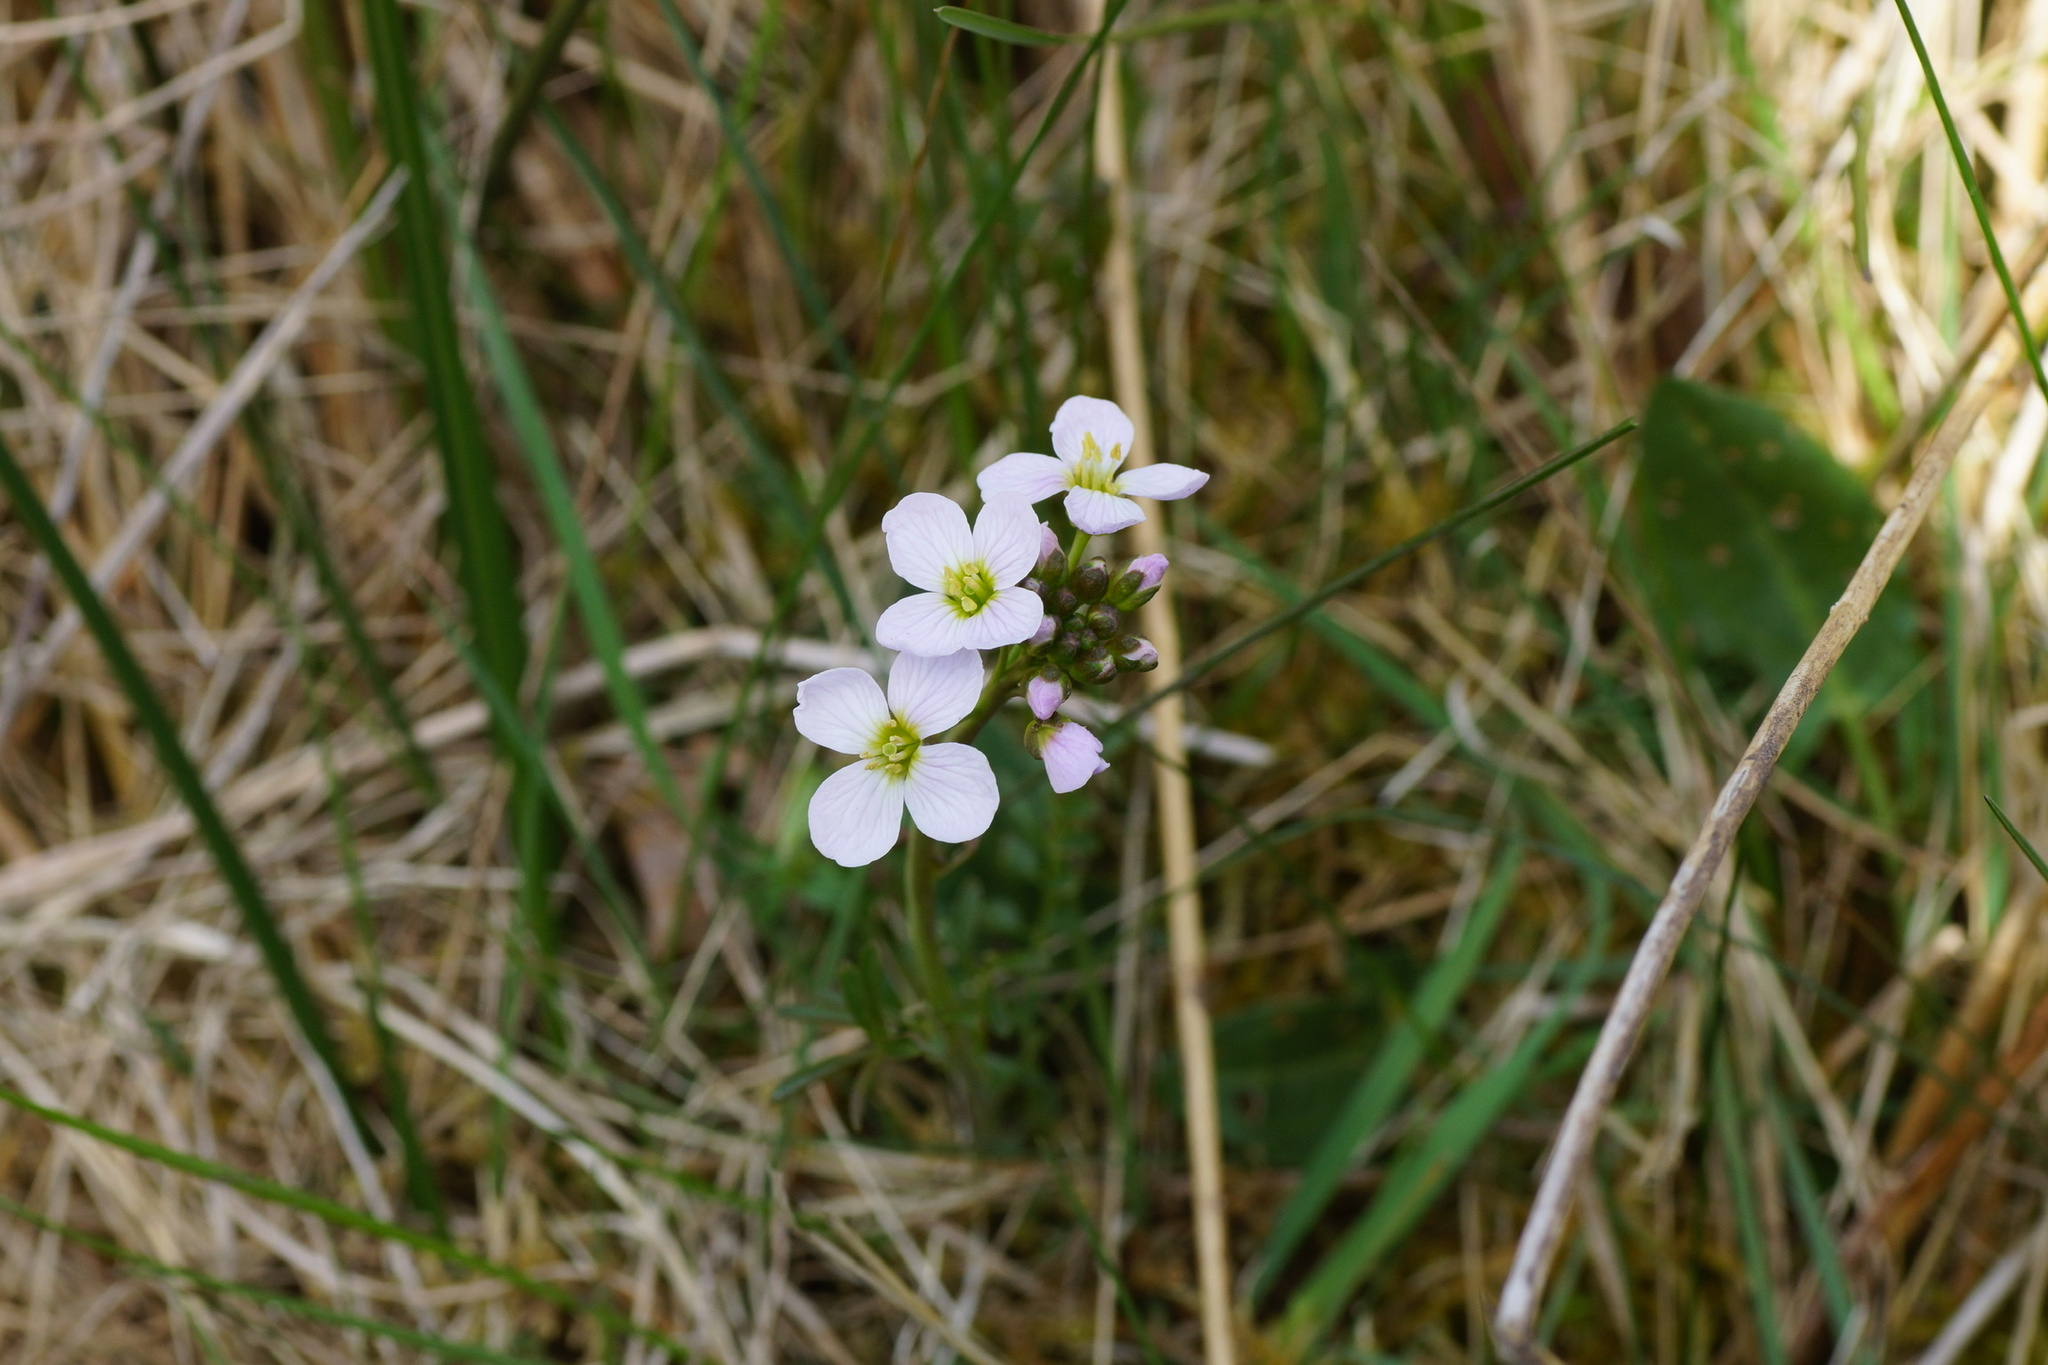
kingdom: Plantae
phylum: Tracheophyta
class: Magnoliopsida
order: Brassicales
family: Brassicaceae
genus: Cardamine
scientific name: Cardamine pratensis
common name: Cuckoo flower
